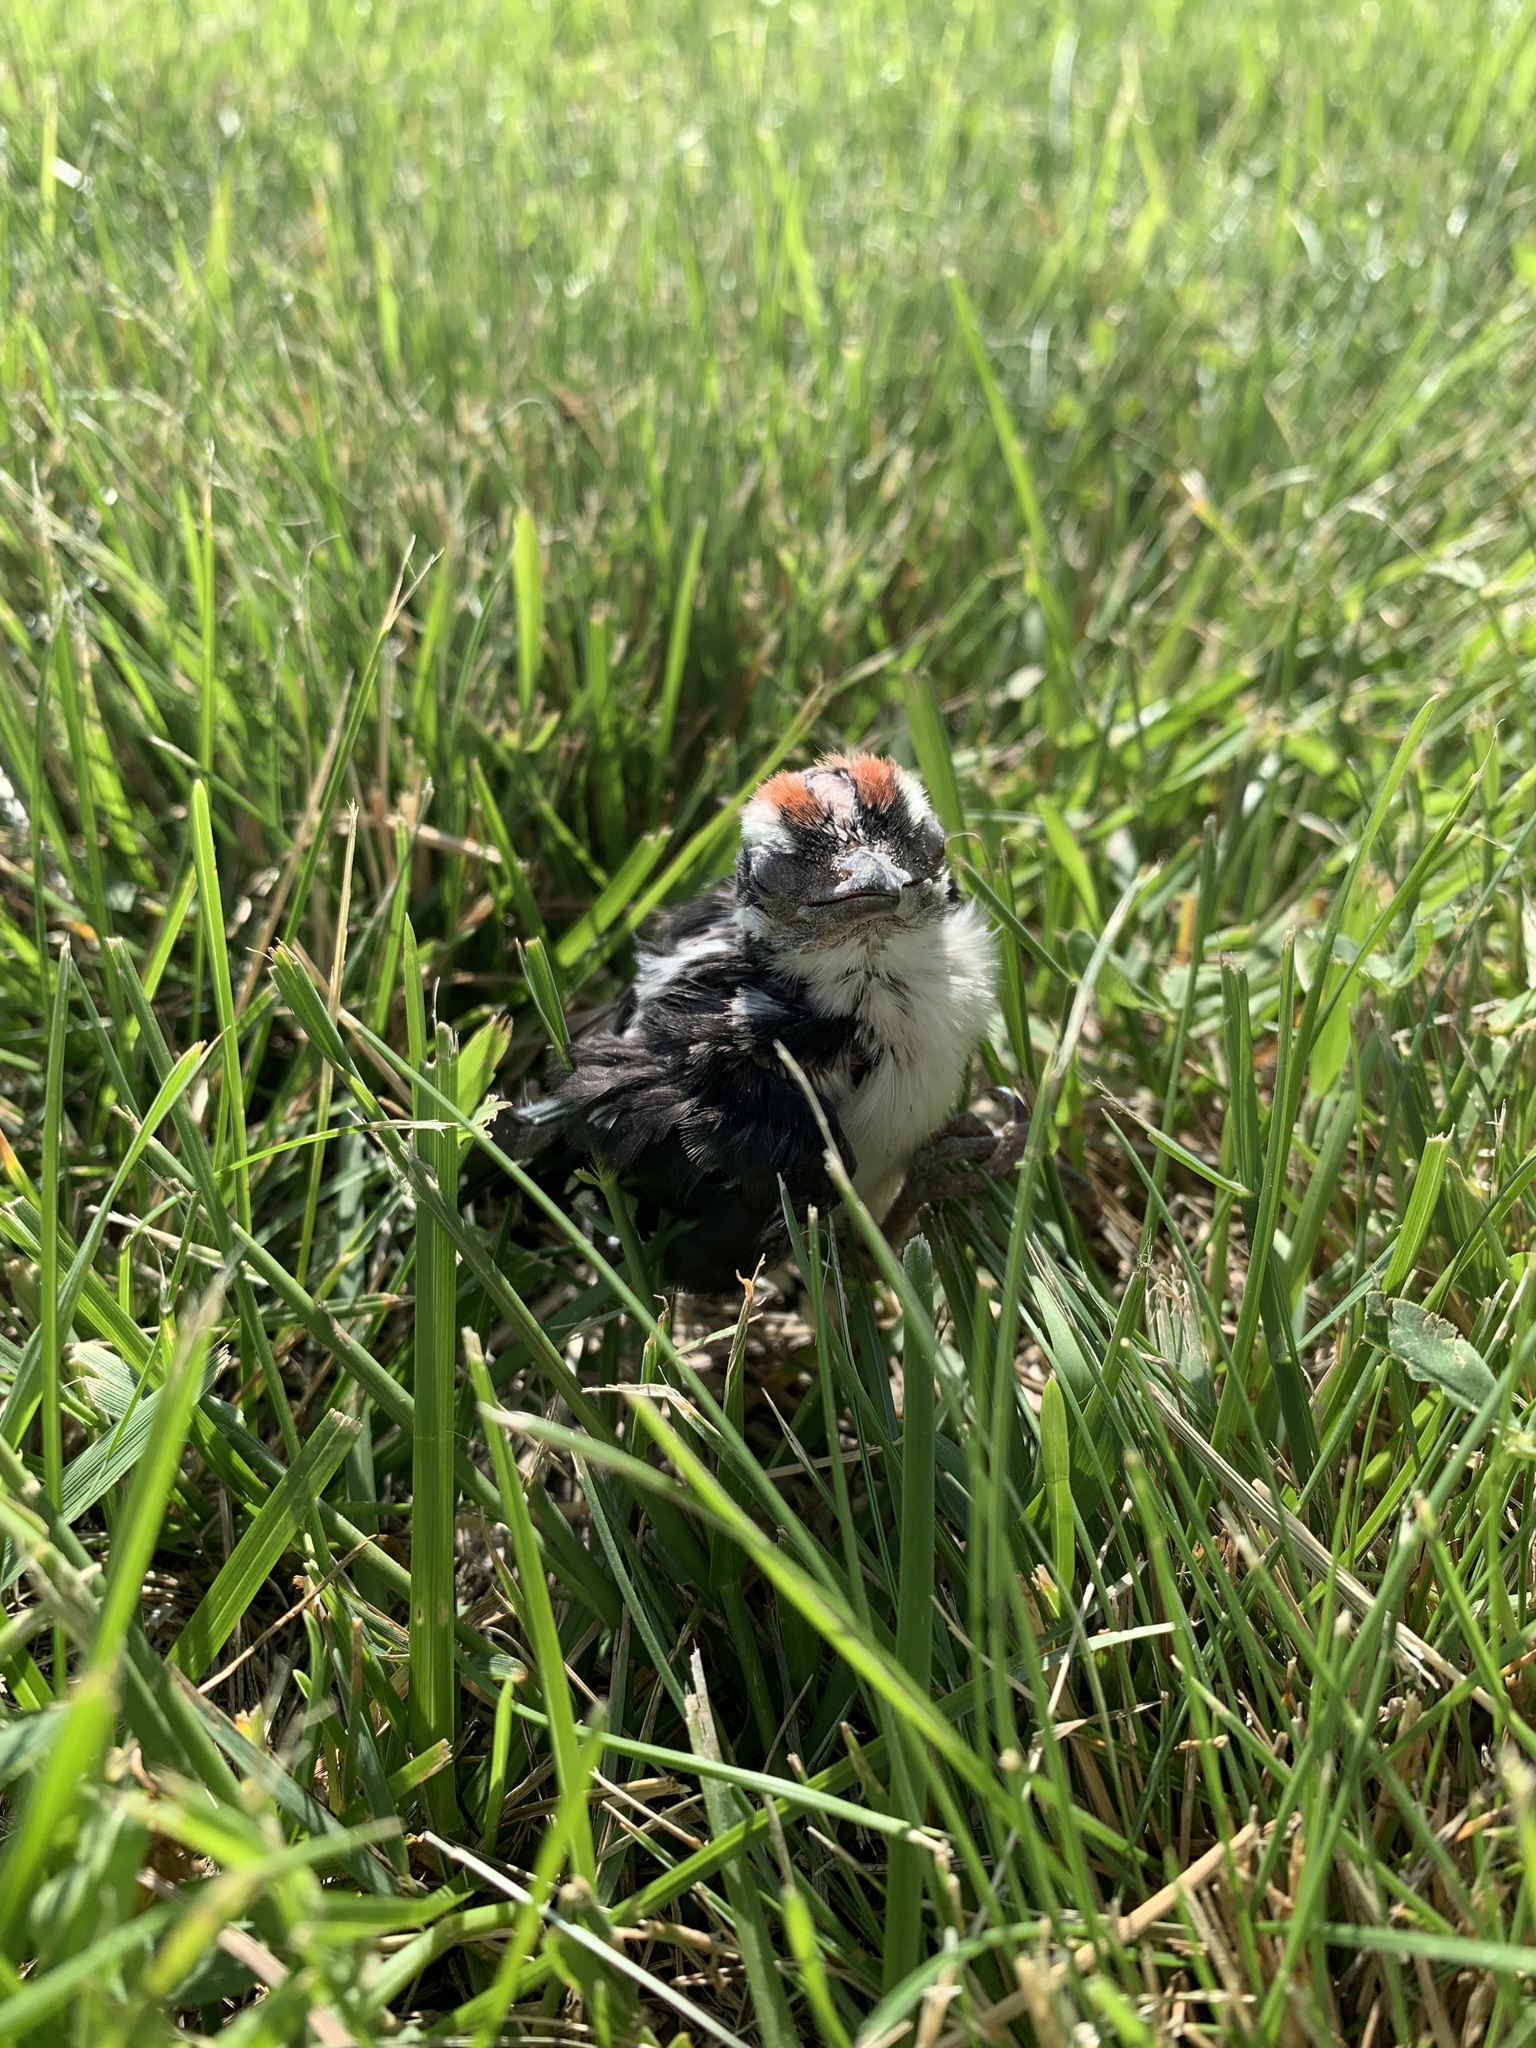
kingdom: Animalia
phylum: Chordata
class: Aves
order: Piciformes
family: Picidae
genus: Dryobates
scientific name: Dryobates pubescens
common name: Downy woodpecker
